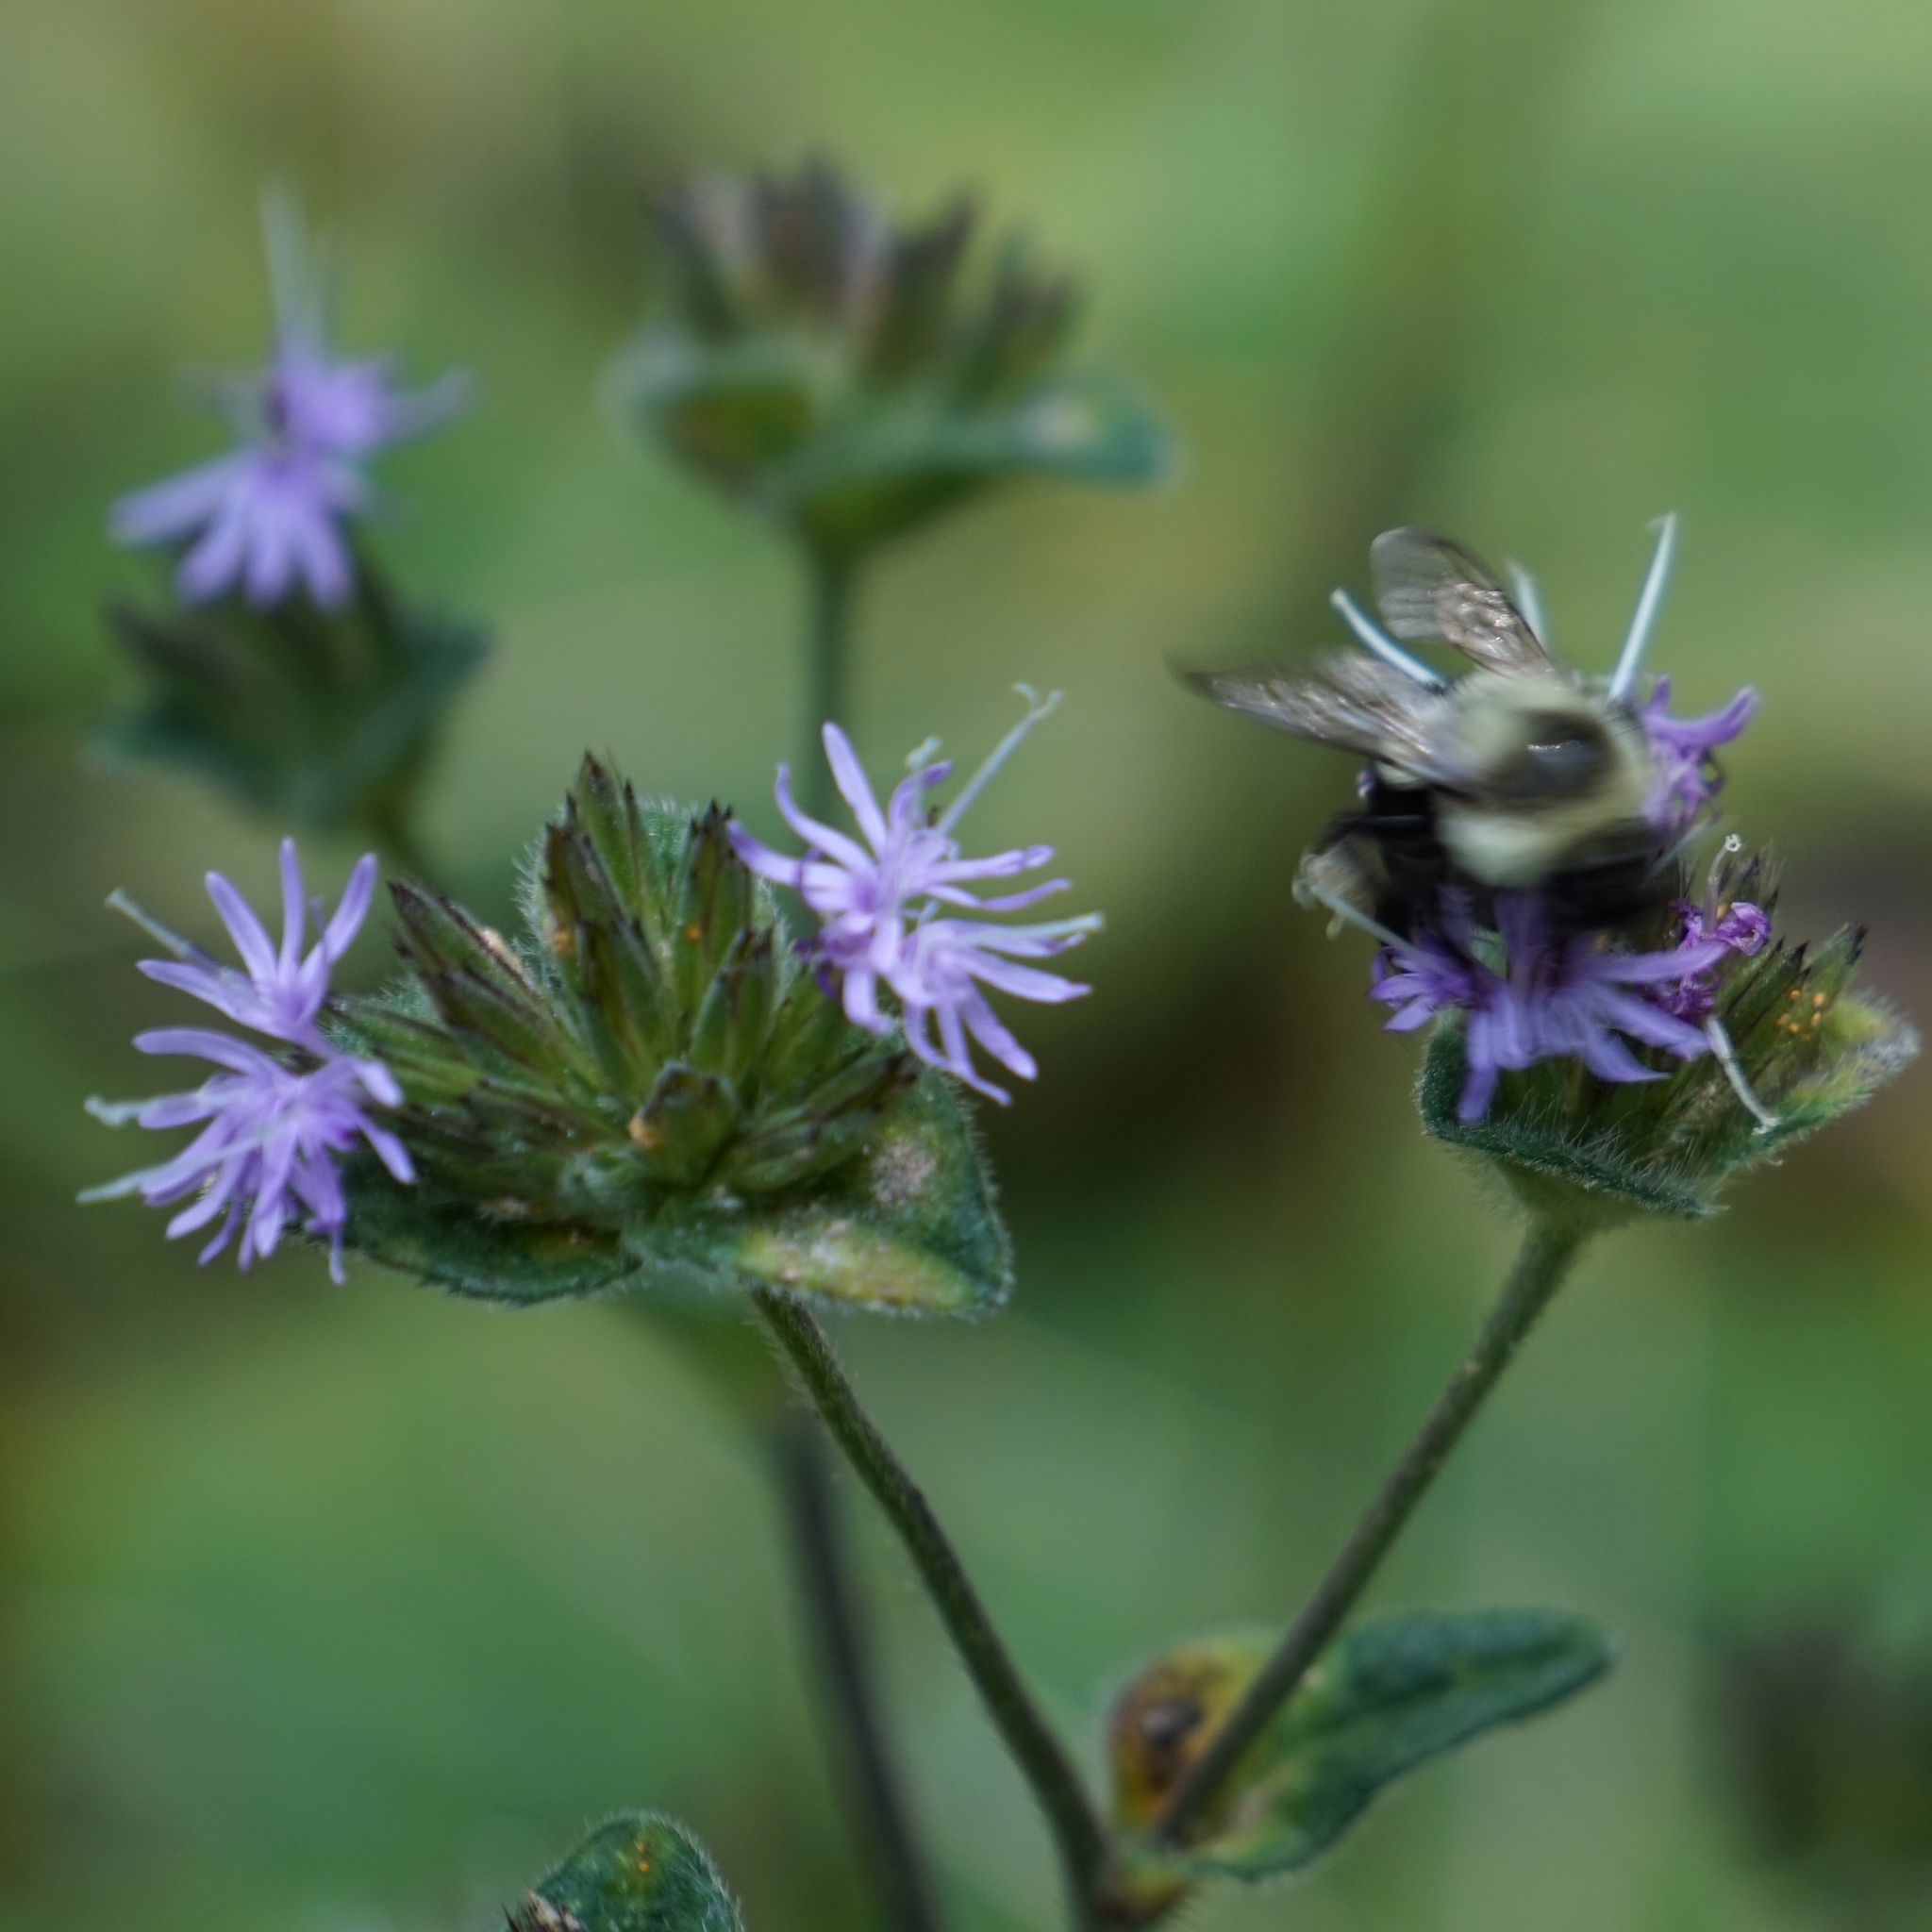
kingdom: Animalia
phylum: Arthropoda
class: Insecta
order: Hymenoptera
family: Apidae
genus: Bombus
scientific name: Bombus impatiens
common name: Common eastern bumble bee
